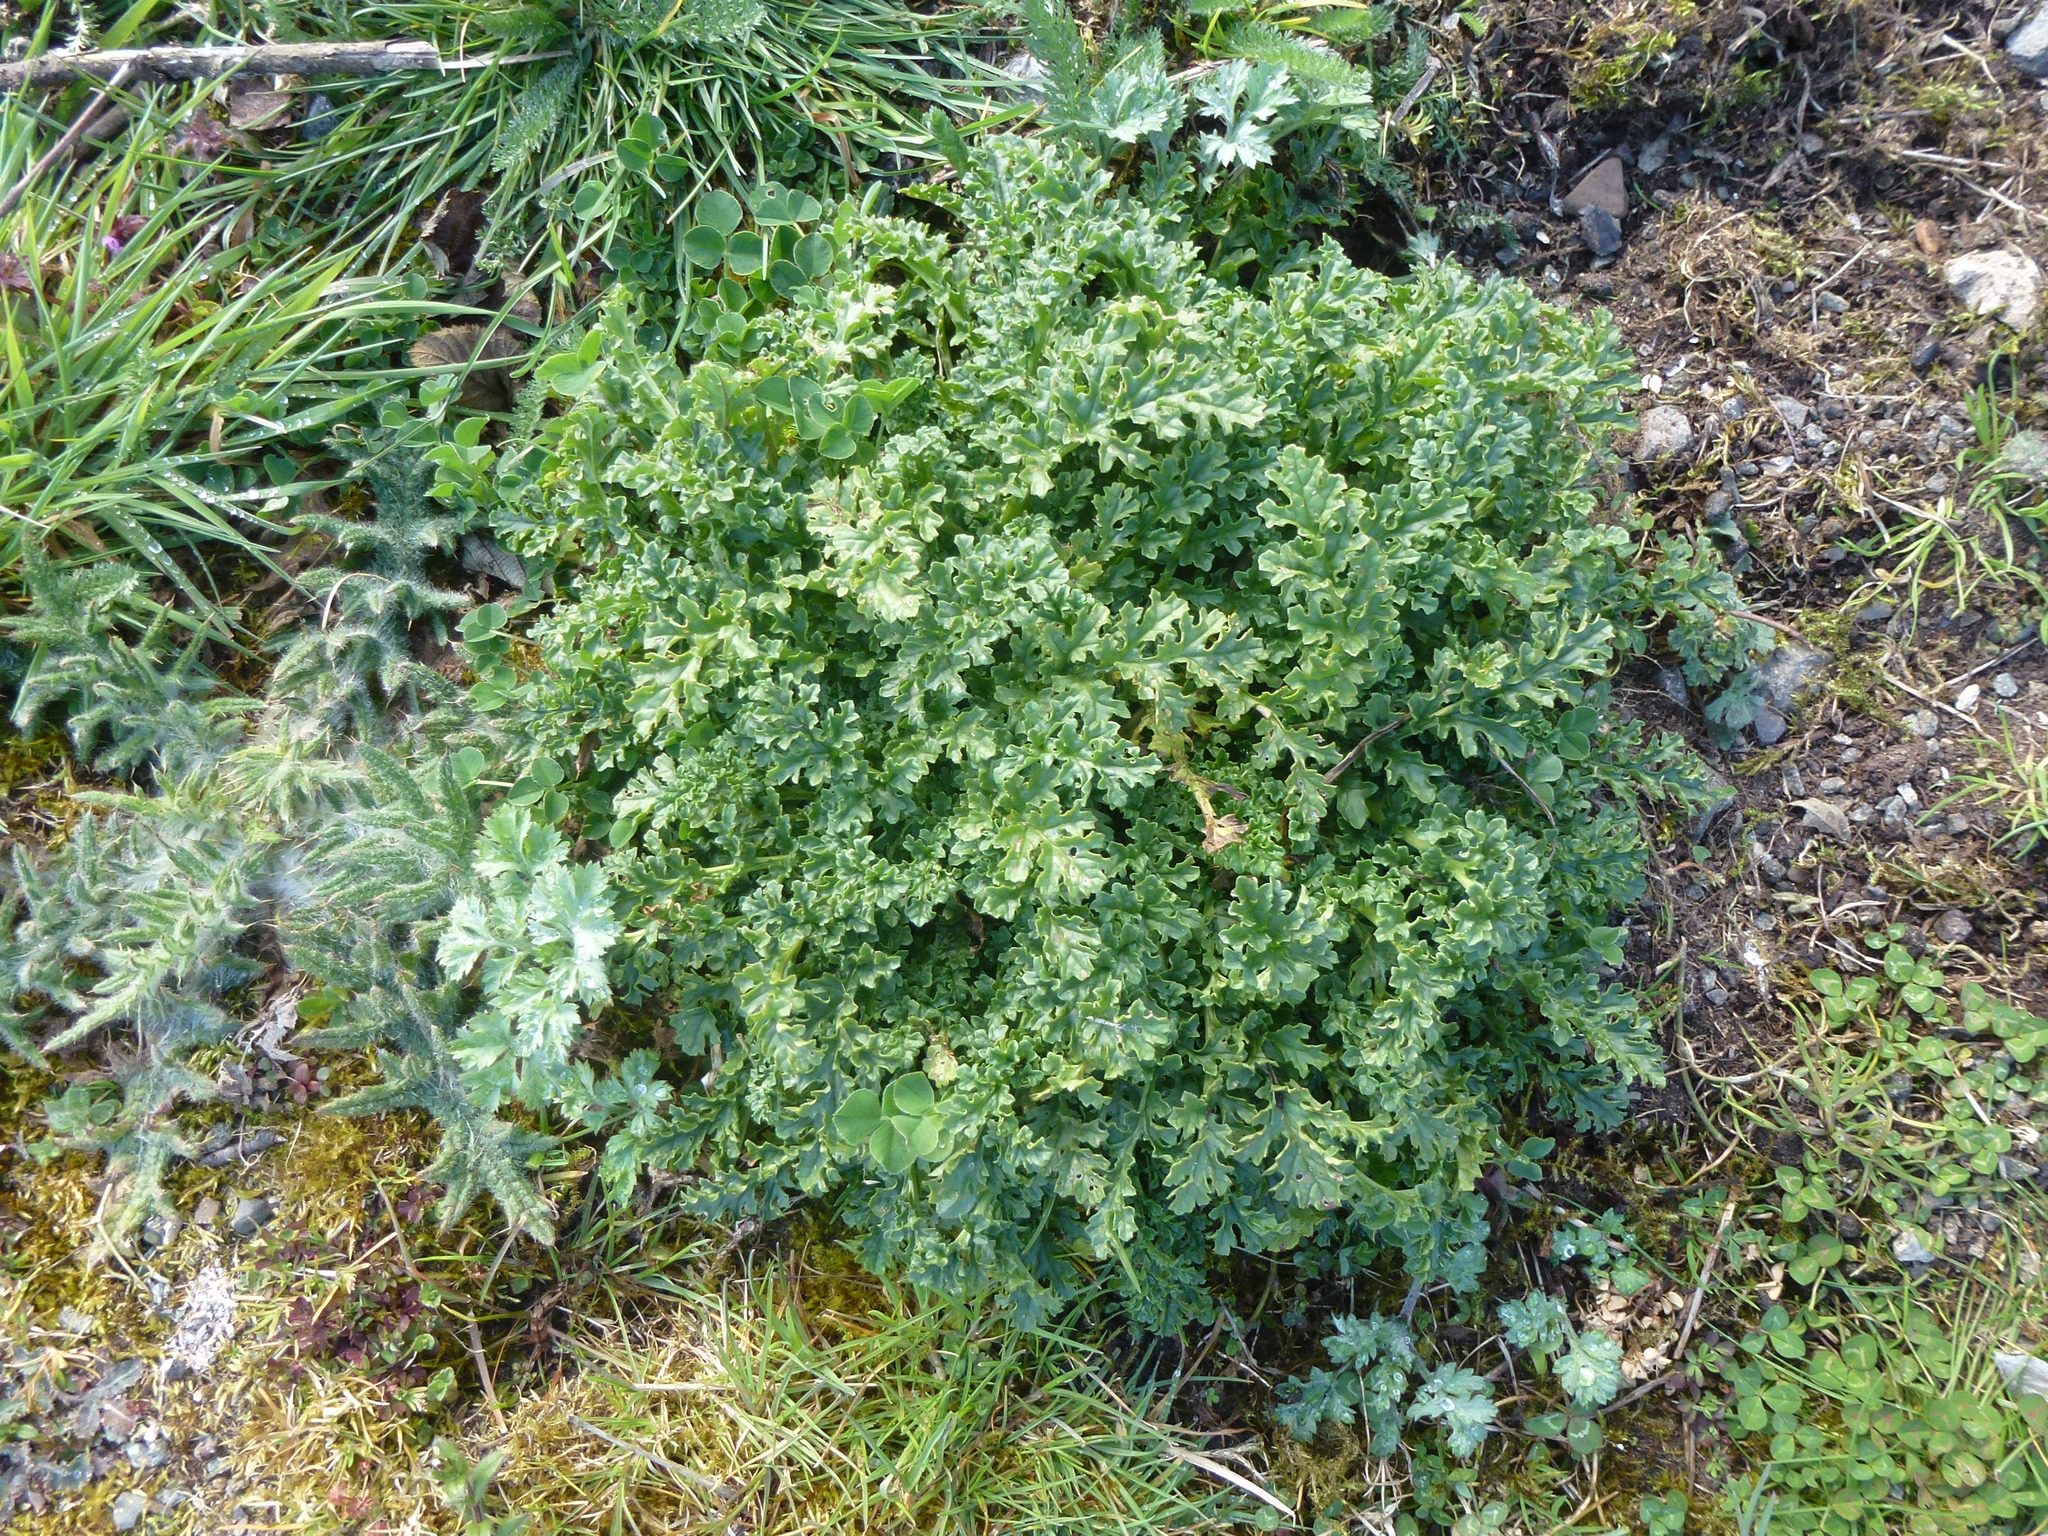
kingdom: Plantae
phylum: Tracheophyta
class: Magnoliopsida
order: Asterales
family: Asteraceae
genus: Jacobaea
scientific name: Jacobaea vulgaris
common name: Stinking willie
